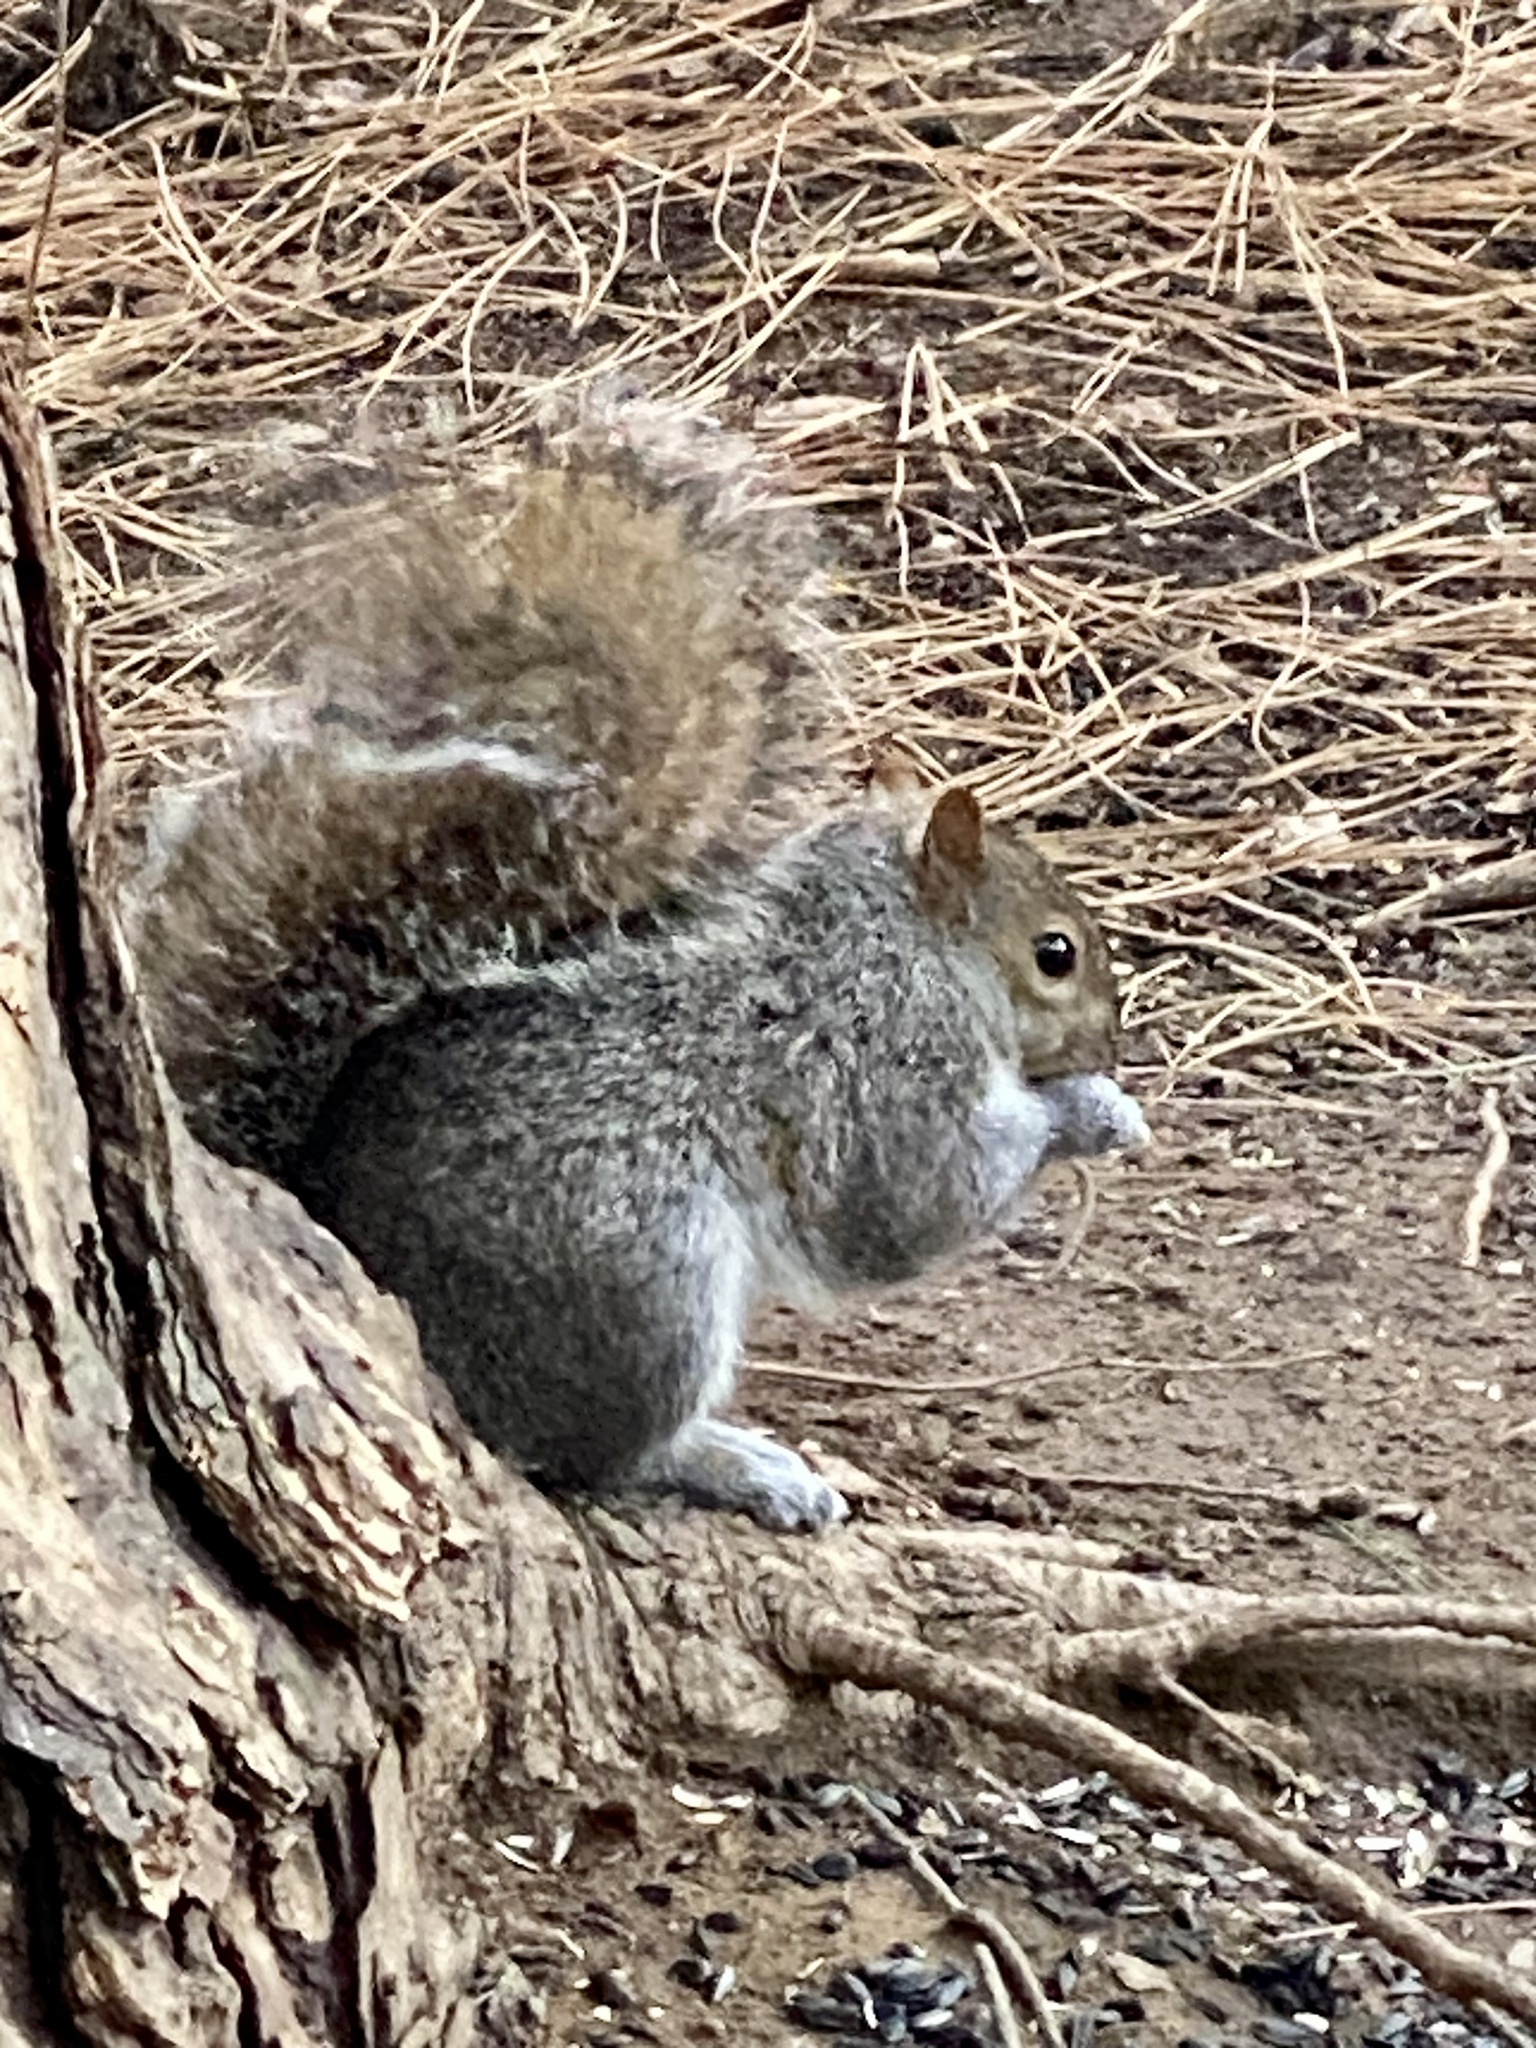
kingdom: Animalia
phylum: Chordata
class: Mammalia
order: Rodentia
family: Sciuridae
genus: Sciurus
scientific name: Sciurus carolinensis
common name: Eastern gray squirrel
